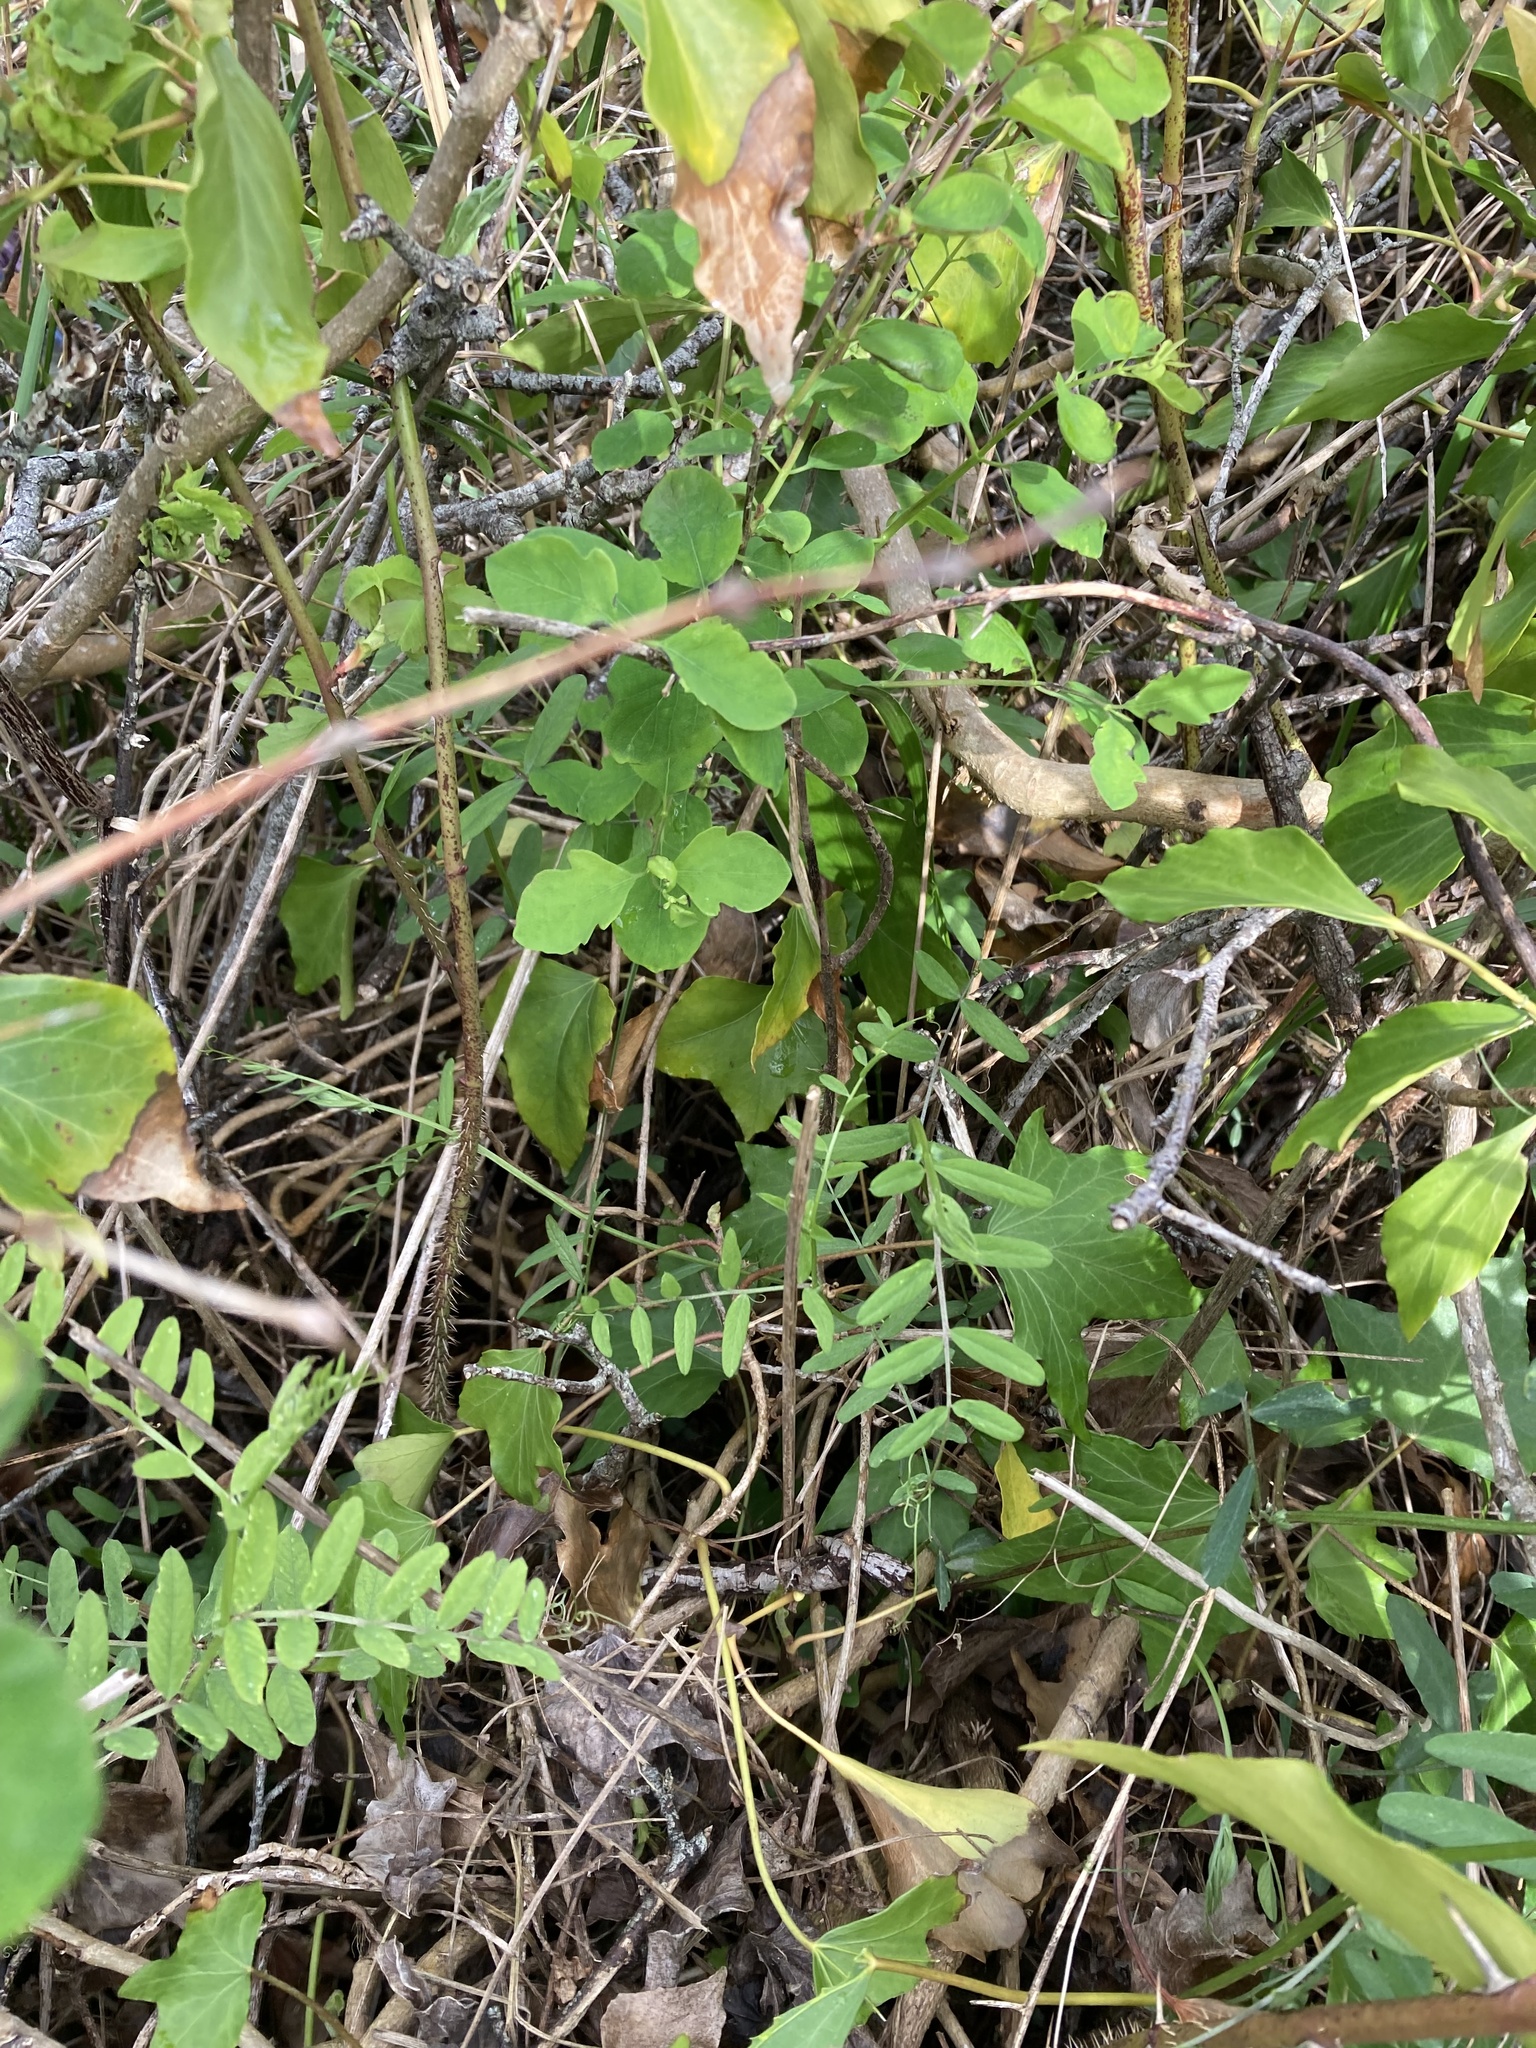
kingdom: Plantae
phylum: Tracheophyta
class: Magnoliopsida
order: Fabales
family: Fabaceae
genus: Vicia
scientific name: Vicia americana
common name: American vetch
